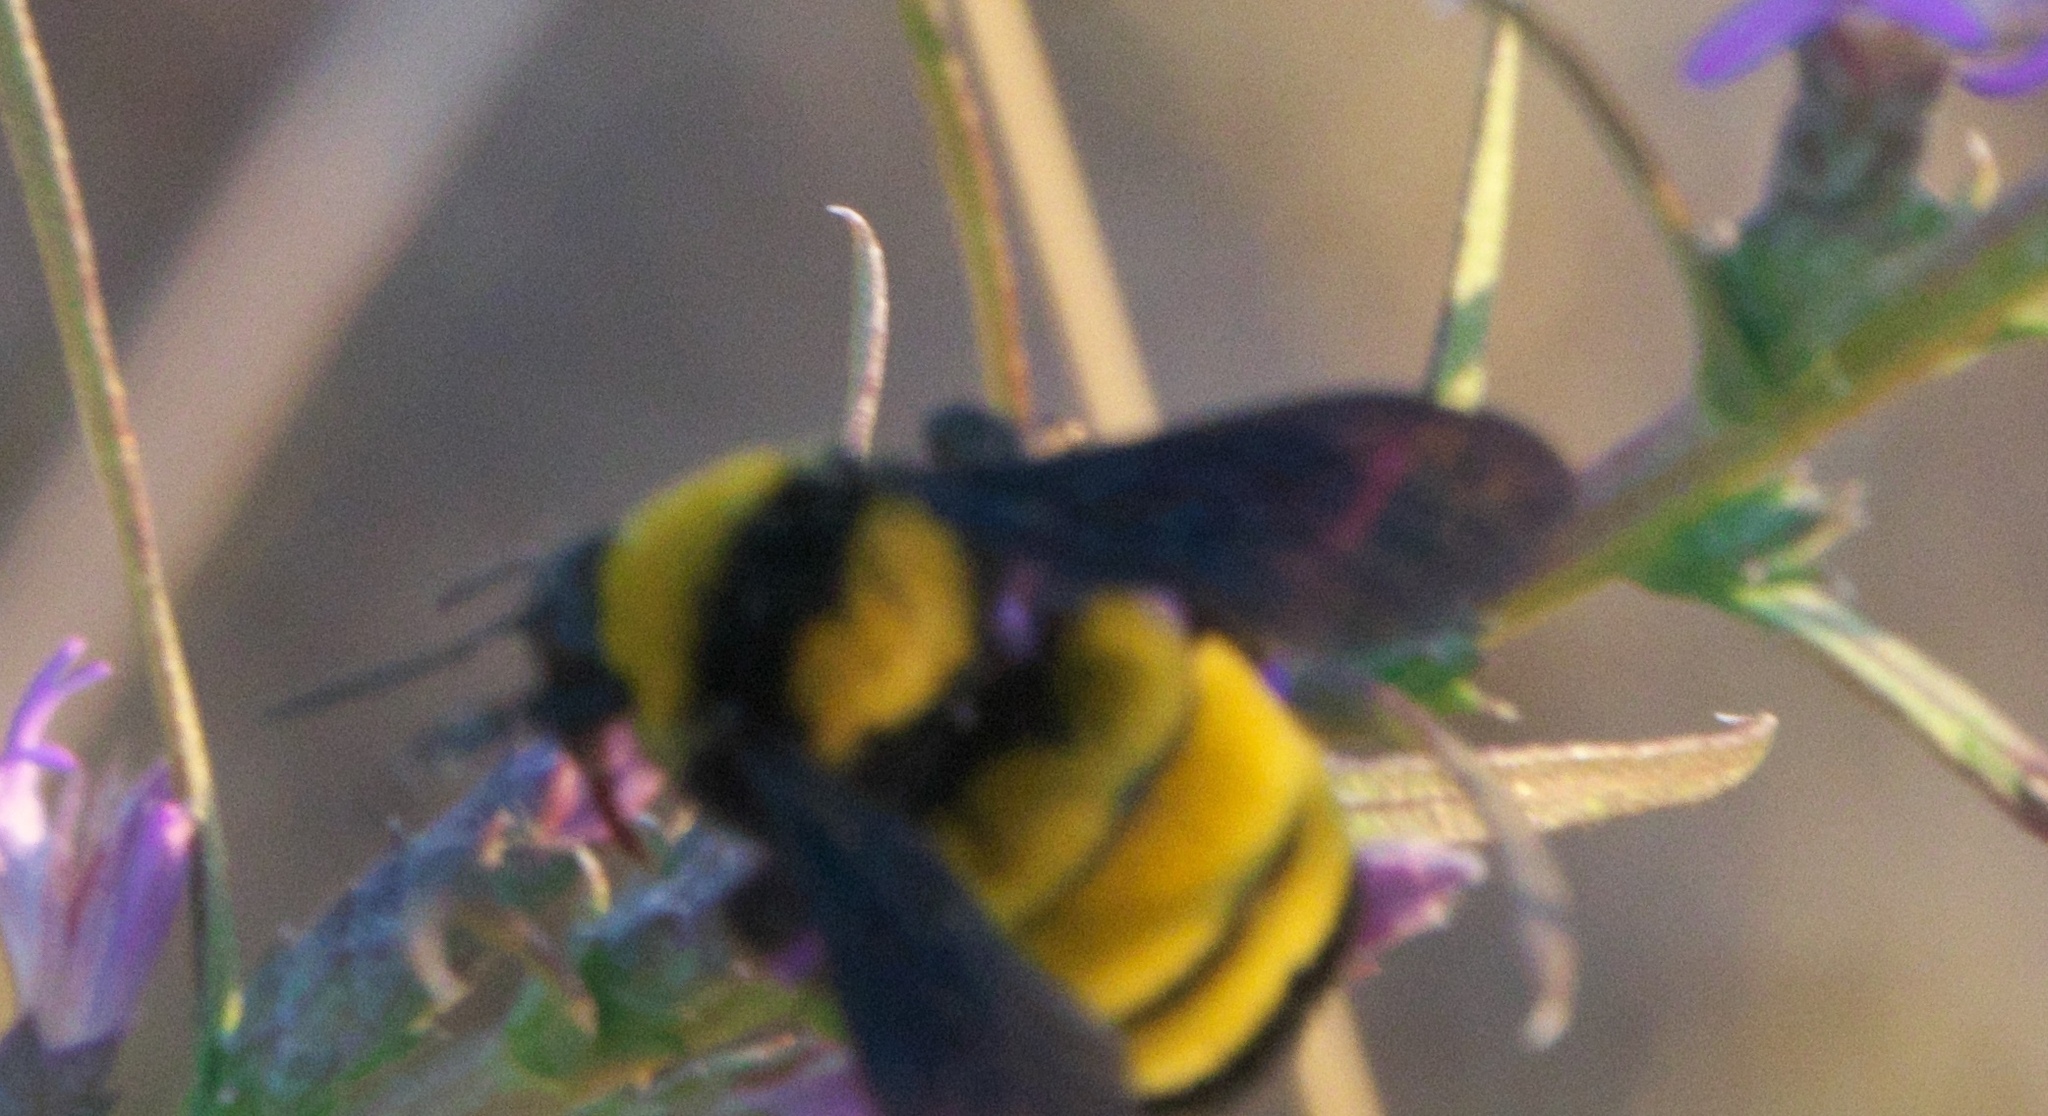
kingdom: Animalia
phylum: Arthropoda
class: Insecta
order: Hymenoptera
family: Apidae
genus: Bombus
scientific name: Bombus sonorus
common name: Sonoran bumble bee
